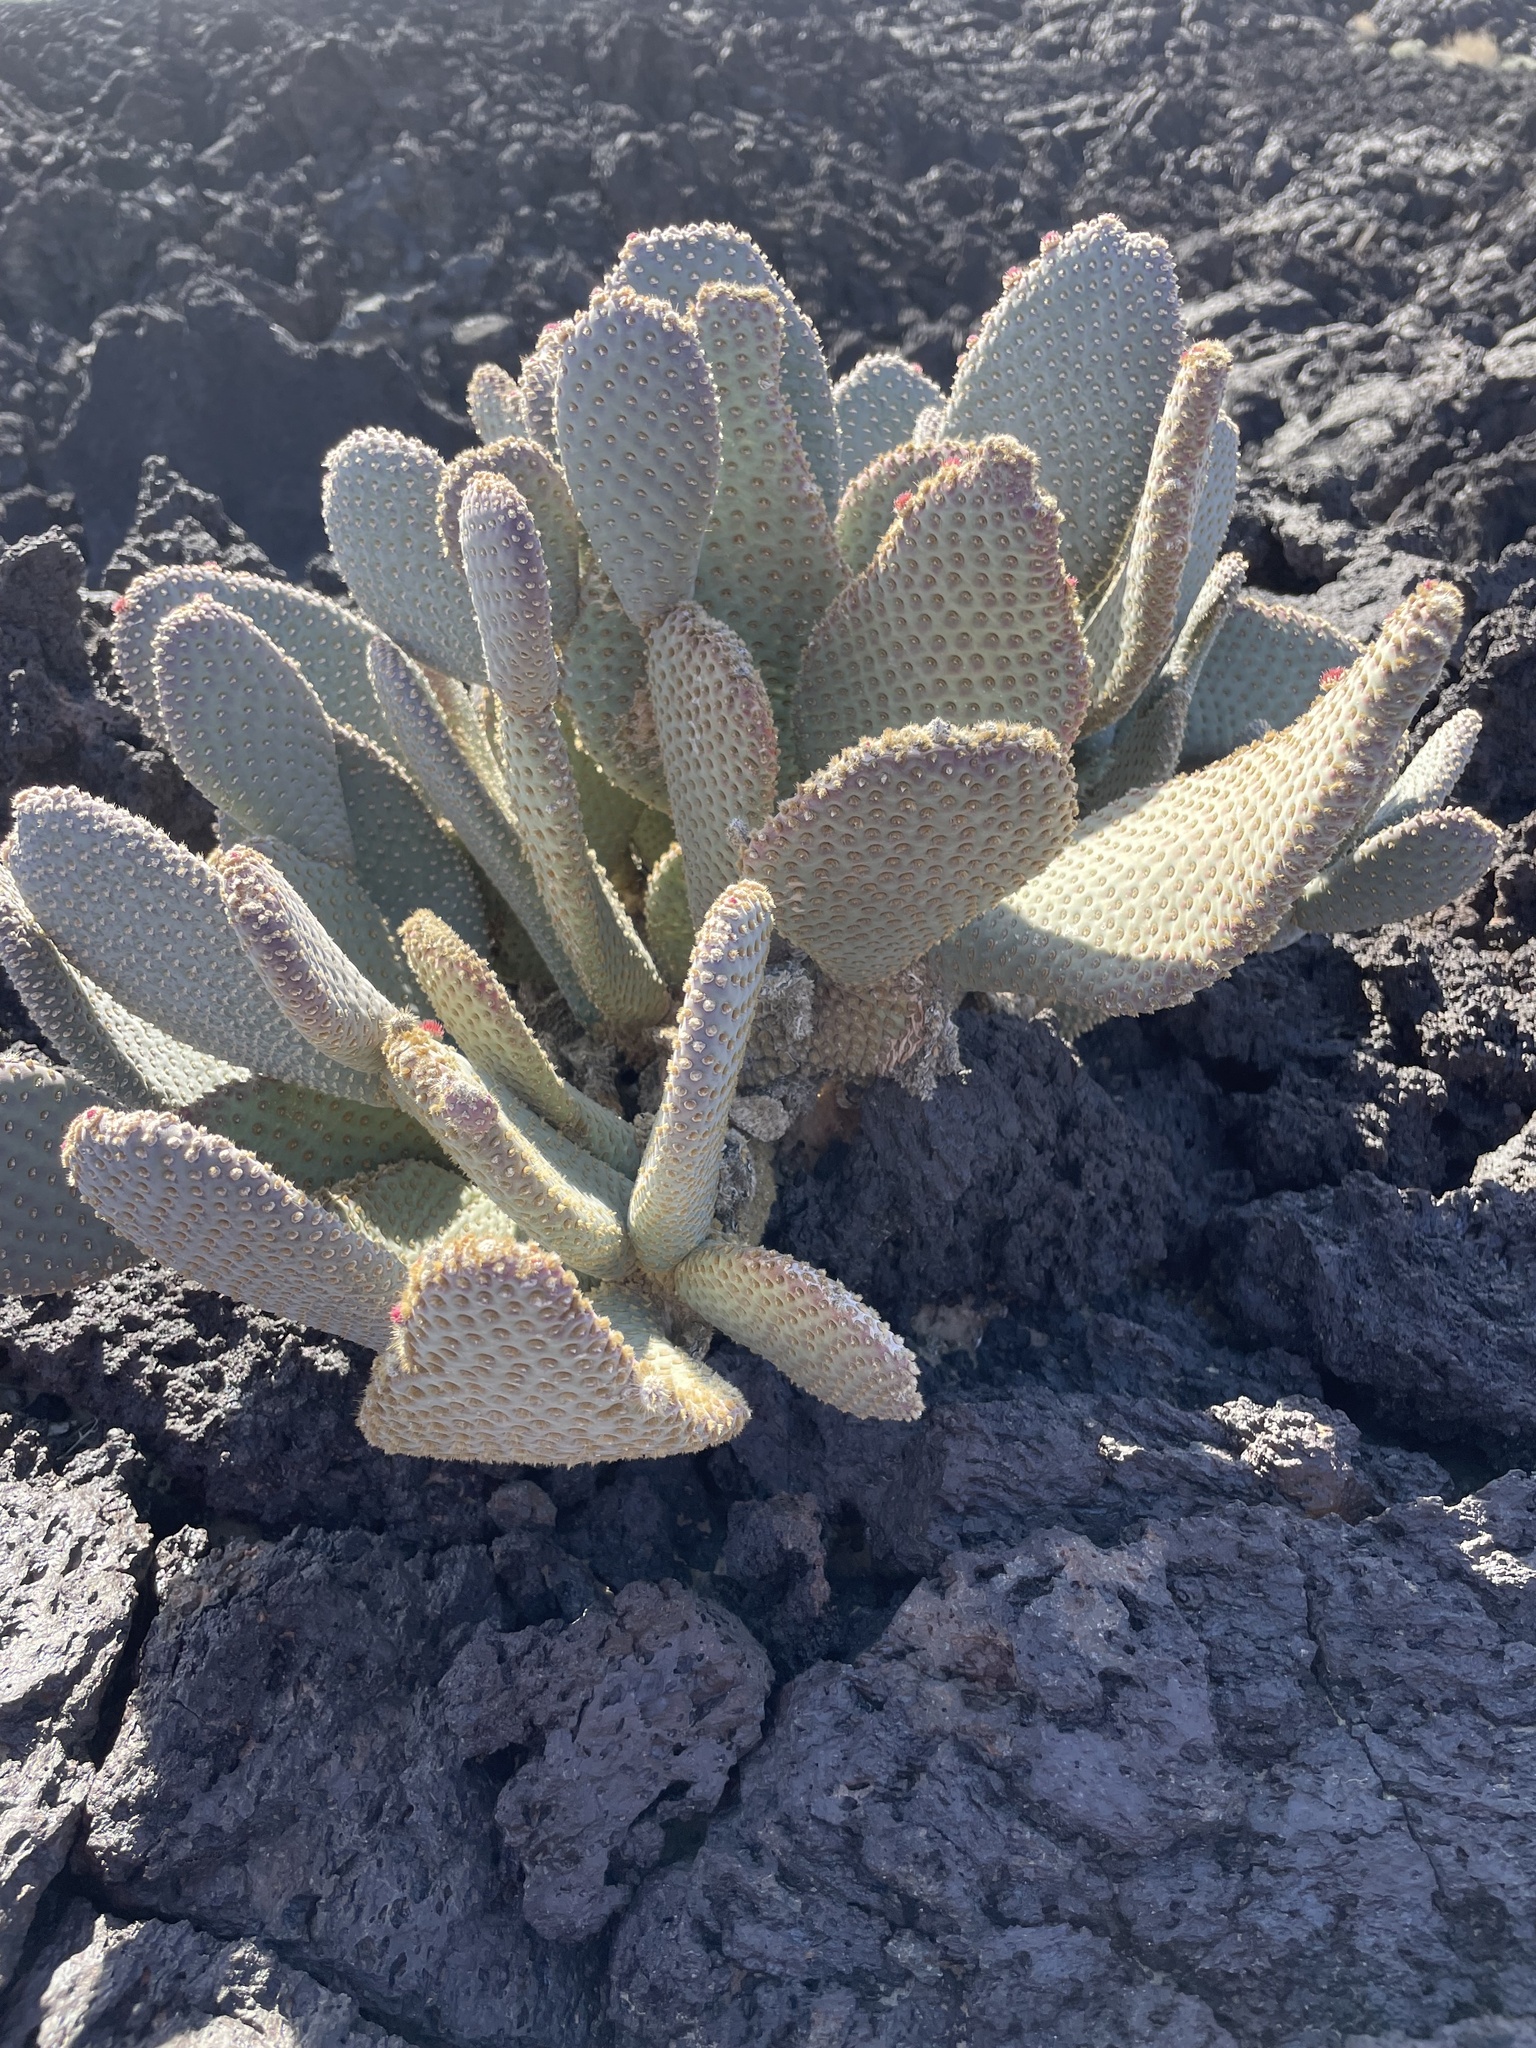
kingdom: Plantae
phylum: Tracheophyta
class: Magnoliopsida
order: Caryophyllales
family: Cactaceae
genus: Opuntia
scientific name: Opuntia basilaris
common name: Beavertail prickly-pear
